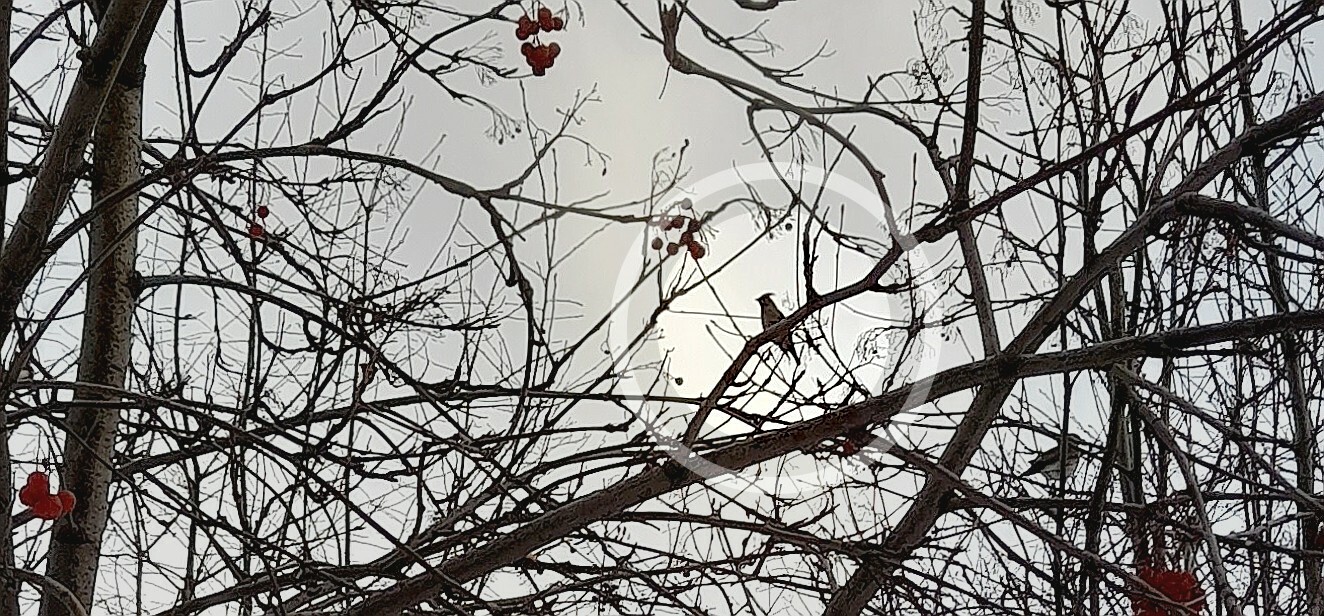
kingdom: Animalia
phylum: Chordata
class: Aves
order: Passeriformes
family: Bombycillidae
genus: Bombycilla
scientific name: Bombycilla garrulus
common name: Bohemian waxwing
